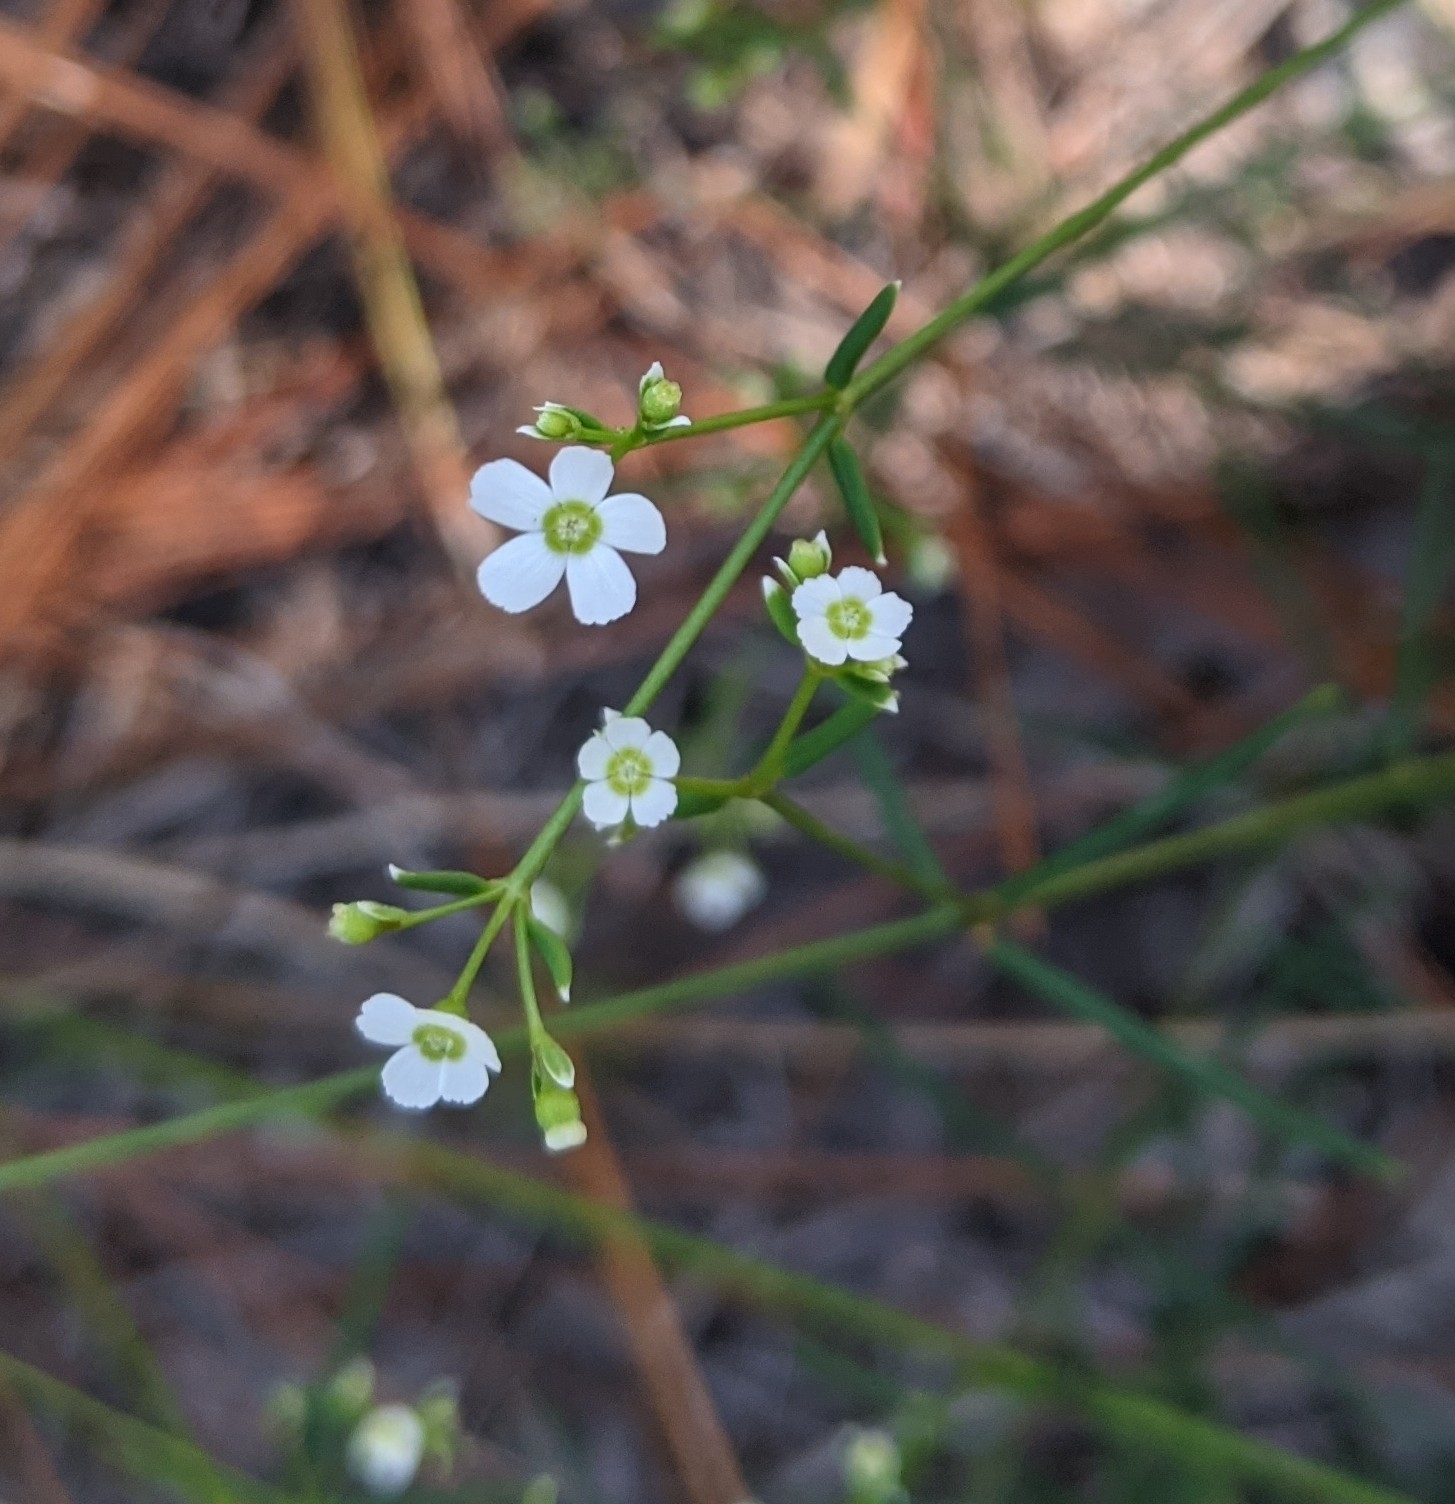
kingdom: Plantae
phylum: Tracheophyta
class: Magnoliopsida
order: Malpighiales
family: Euphorbiaceae
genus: Euphorbia
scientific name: Euphorbia discoidalis
